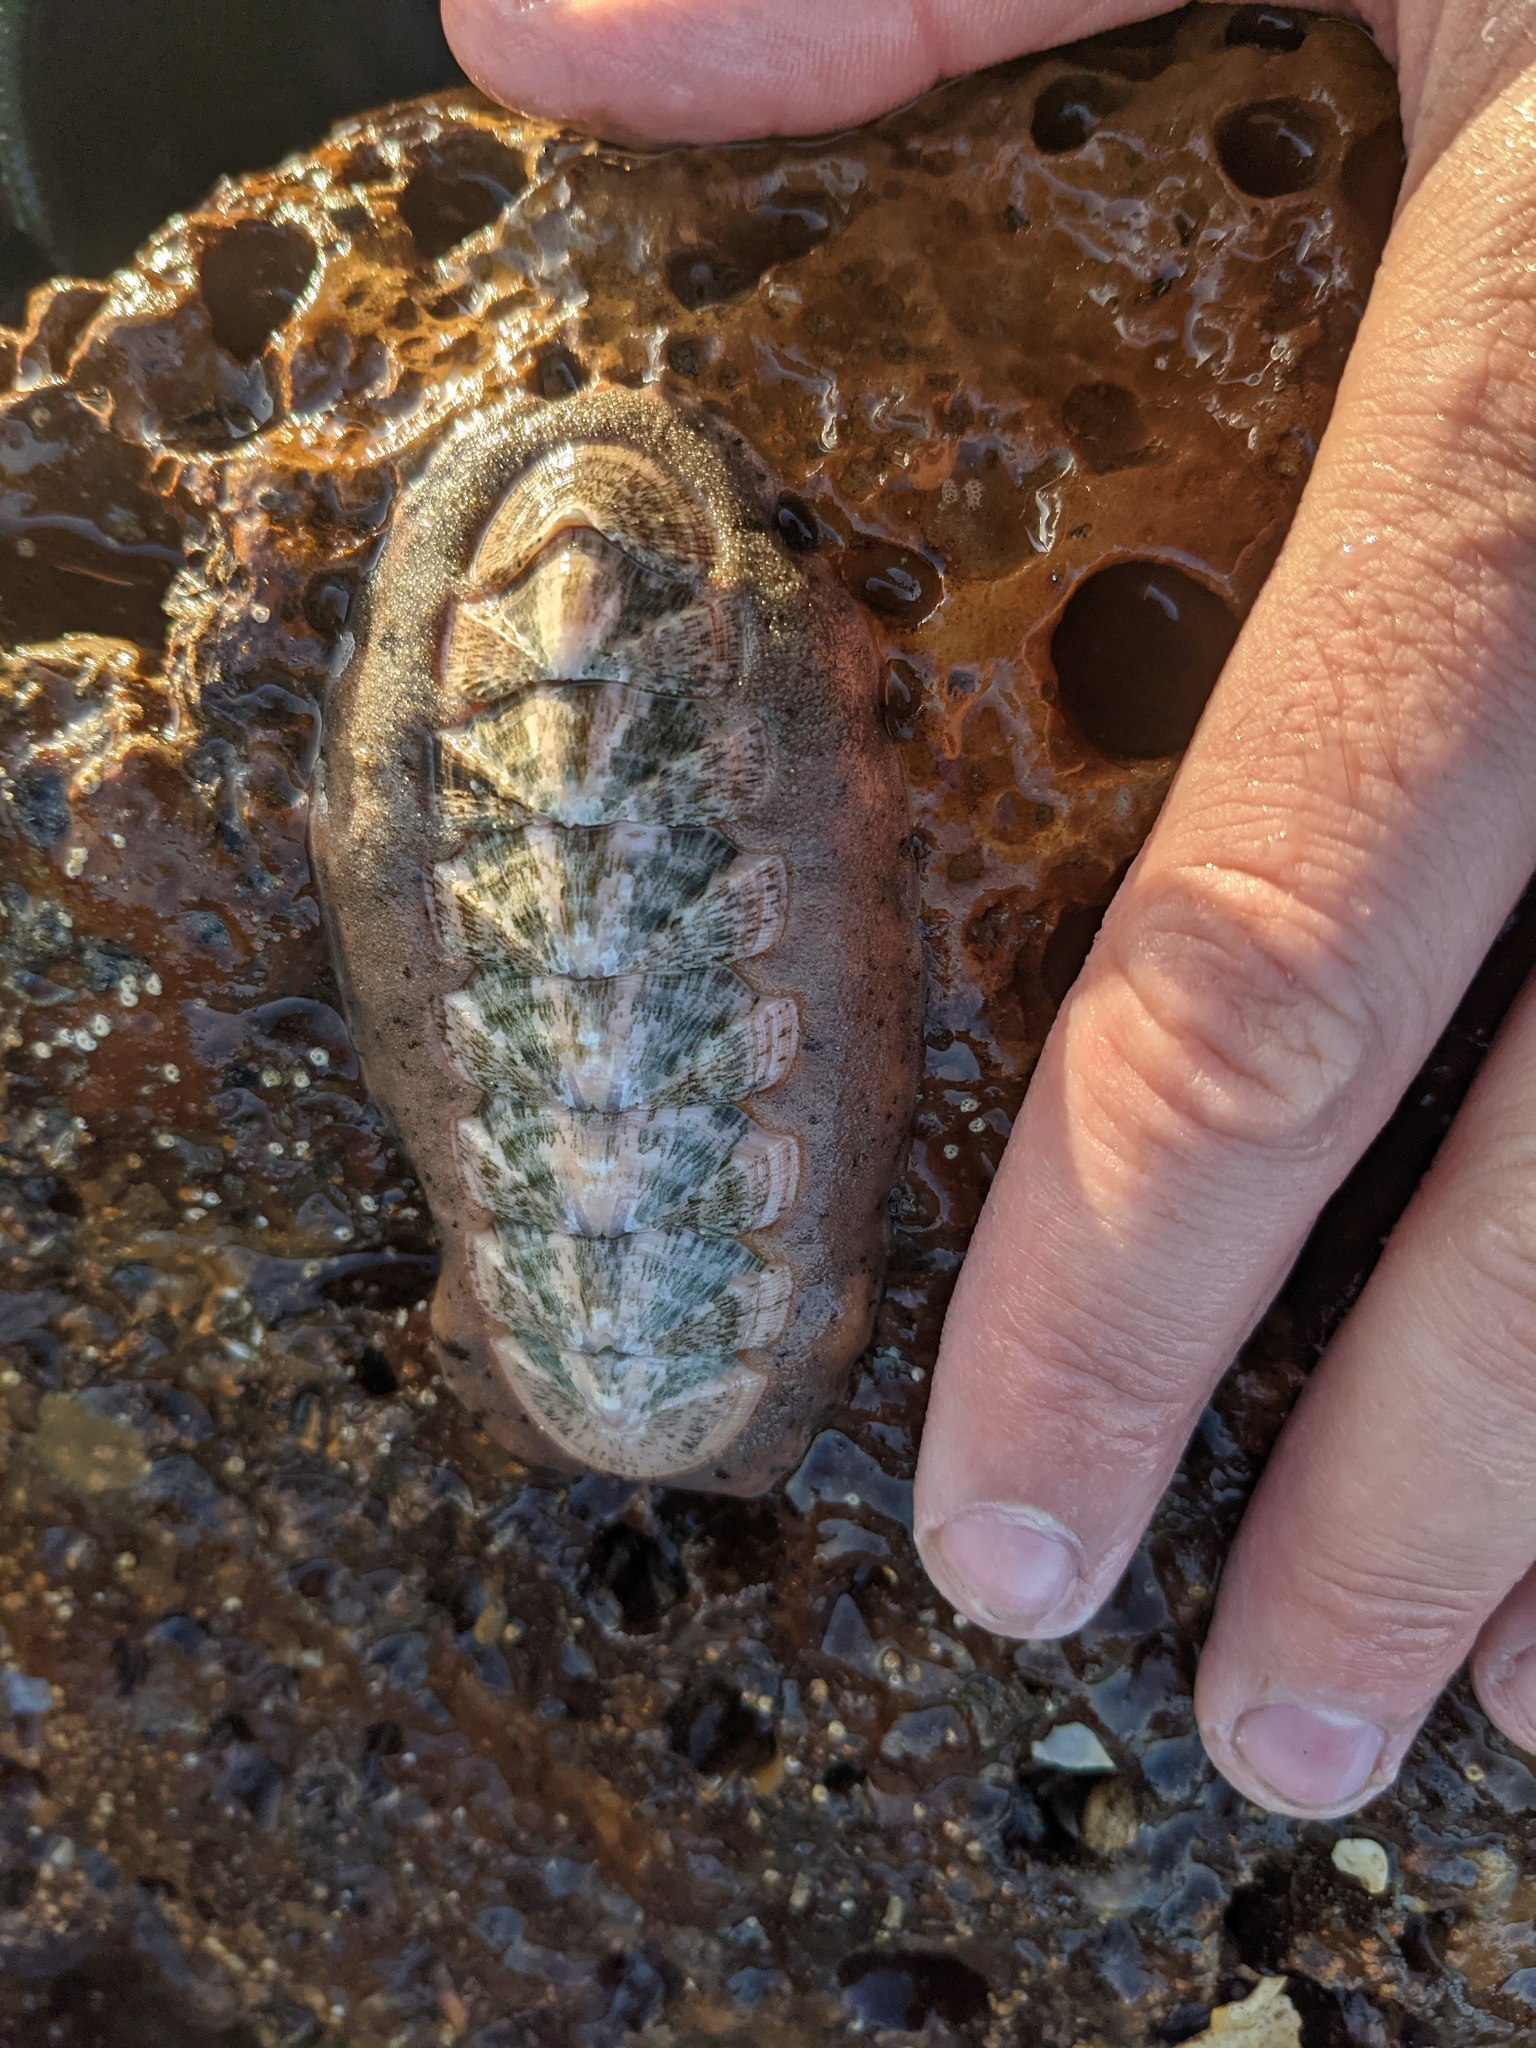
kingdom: Animalia
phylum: Mollusca
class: Polyplacophora
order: Chitonida
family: Ischnochitonidae
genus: Stenoplax
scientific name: Stenoplax conspicua
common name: Conspicuous chiton
